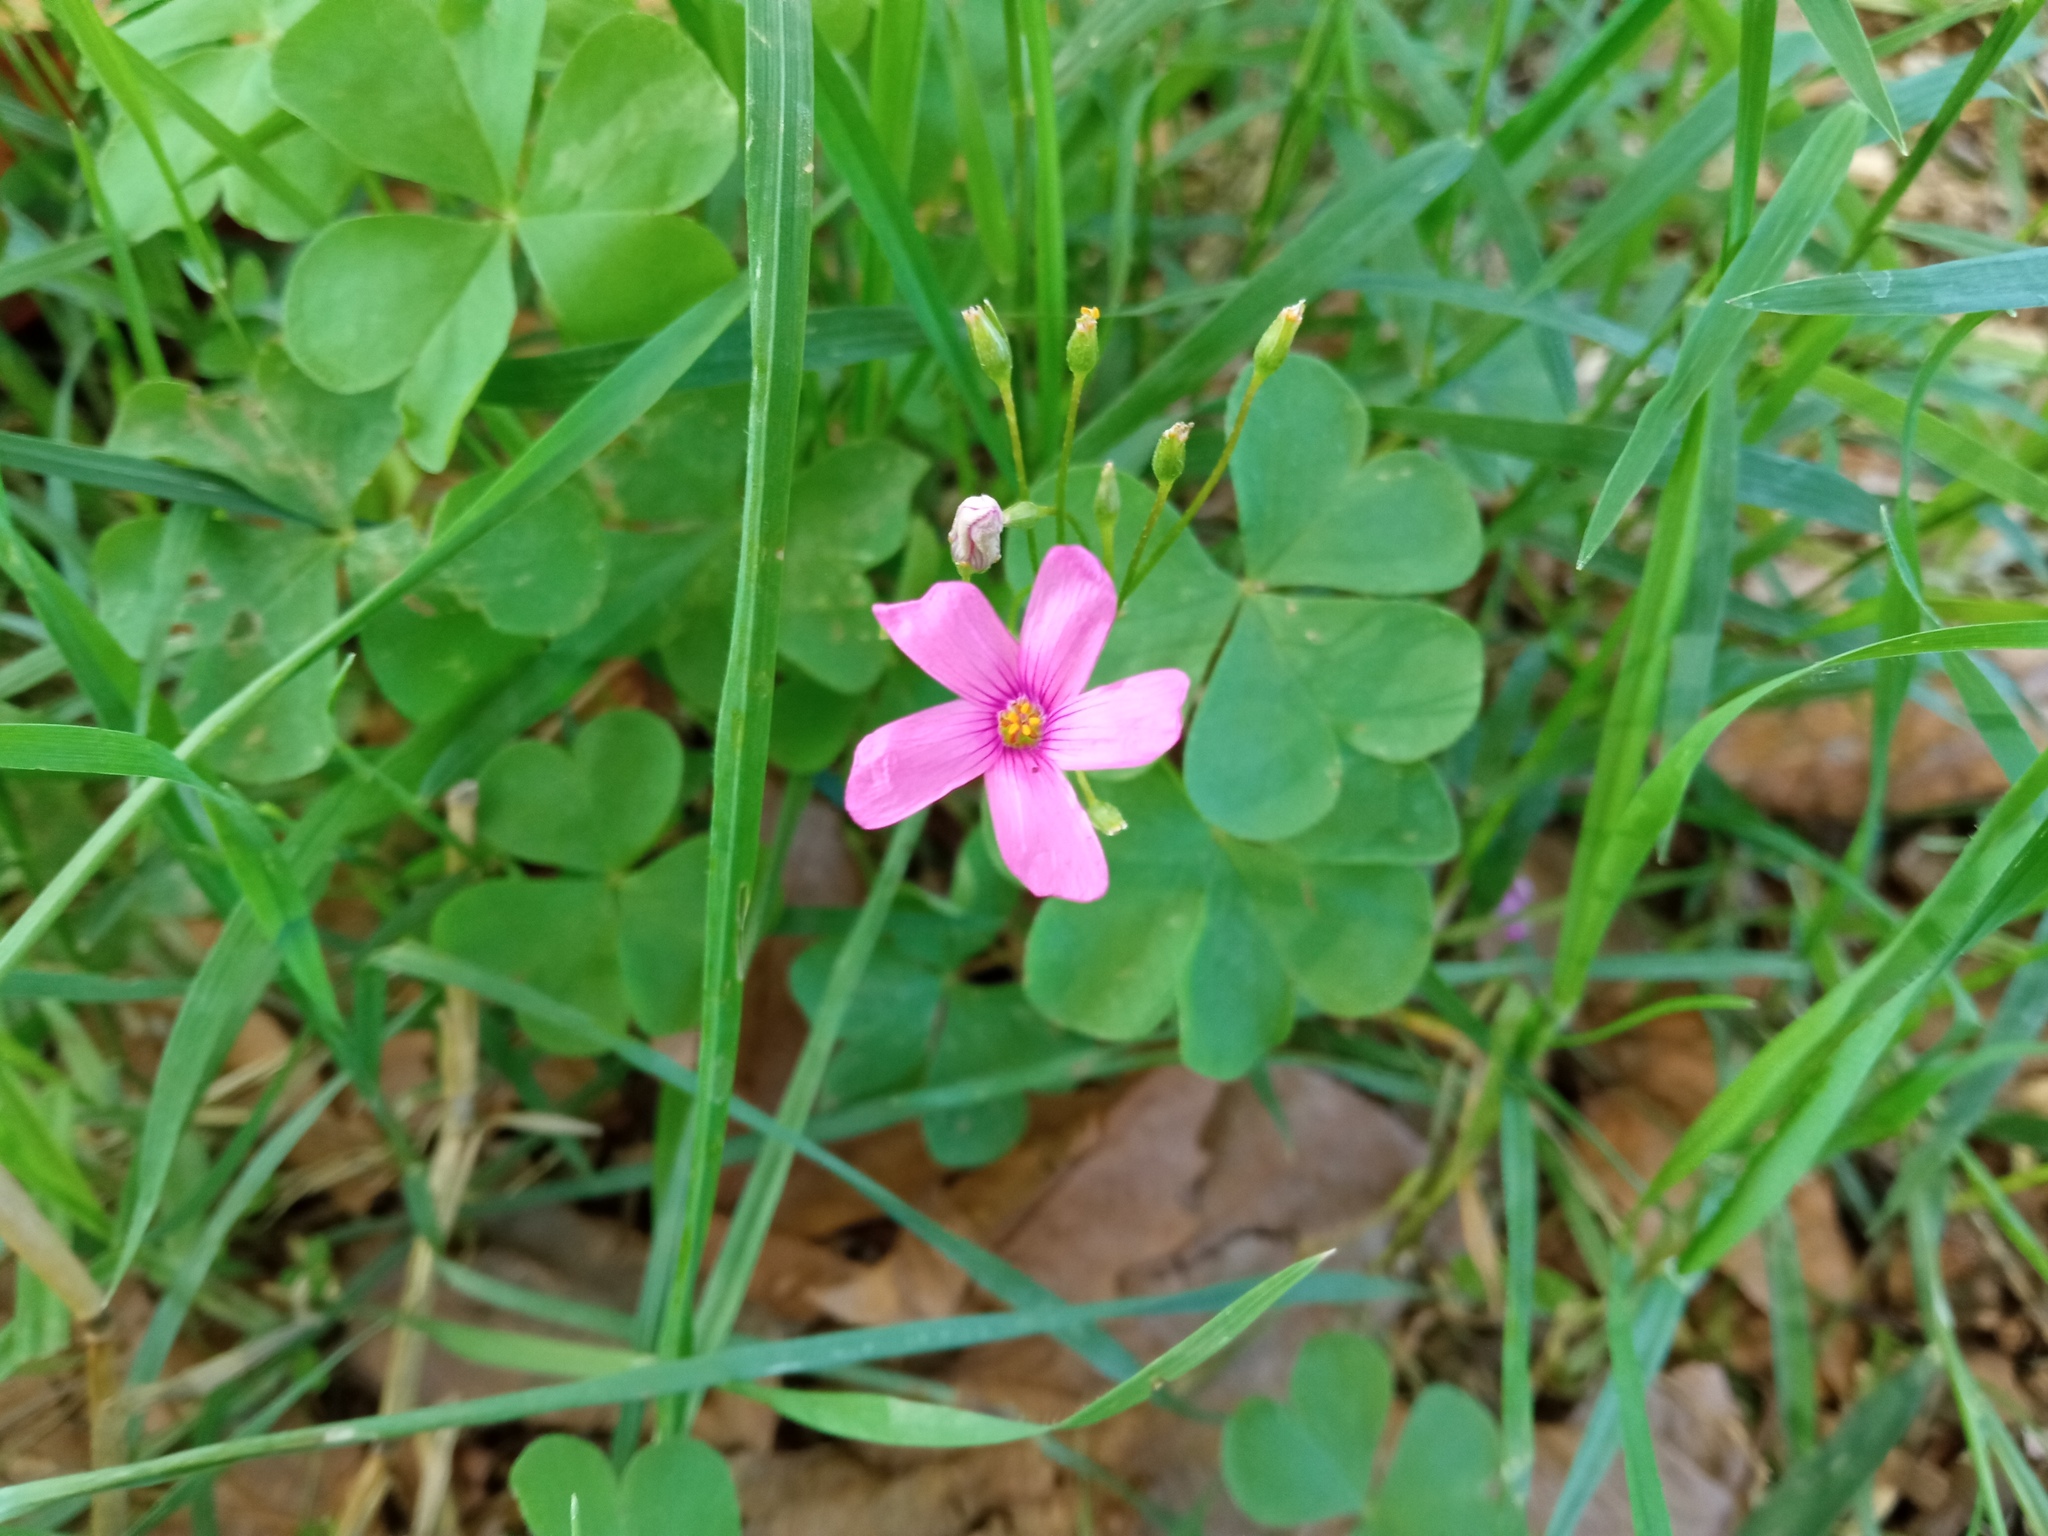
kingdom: Plantae
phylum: Tracheophyta
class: Magnoliopsida
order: Oxalidales
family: Oxalidaceae
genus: Oxalis
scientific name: Oxalis articulata
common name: Pink-sorrel
